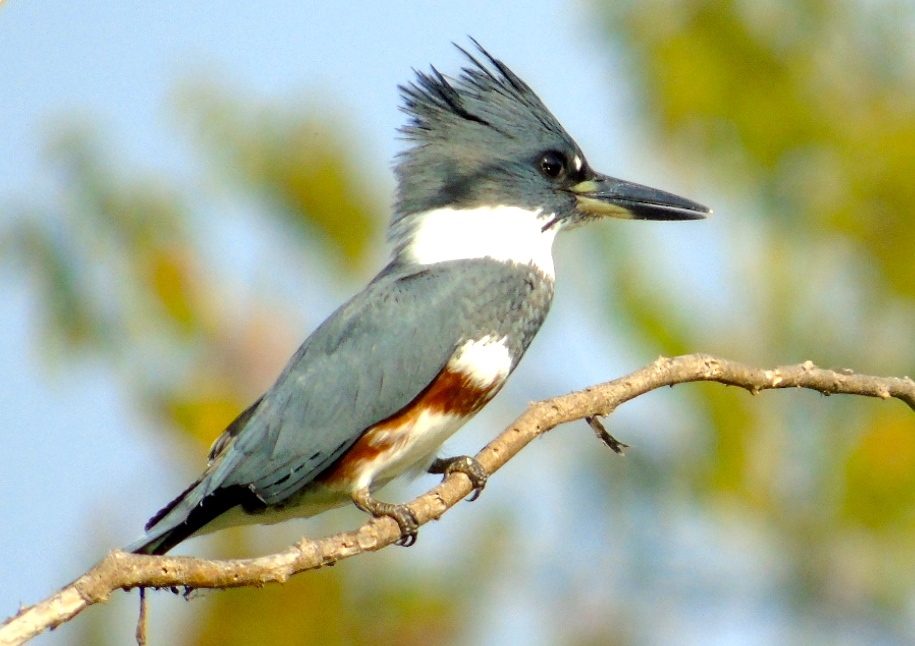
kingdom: Animalia
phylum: Chordata
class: Aves
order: Coraciiformes
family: Alcedinidae
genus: Megaceryle
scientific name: Megaceryle alcyon
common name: Belted kingfisher
